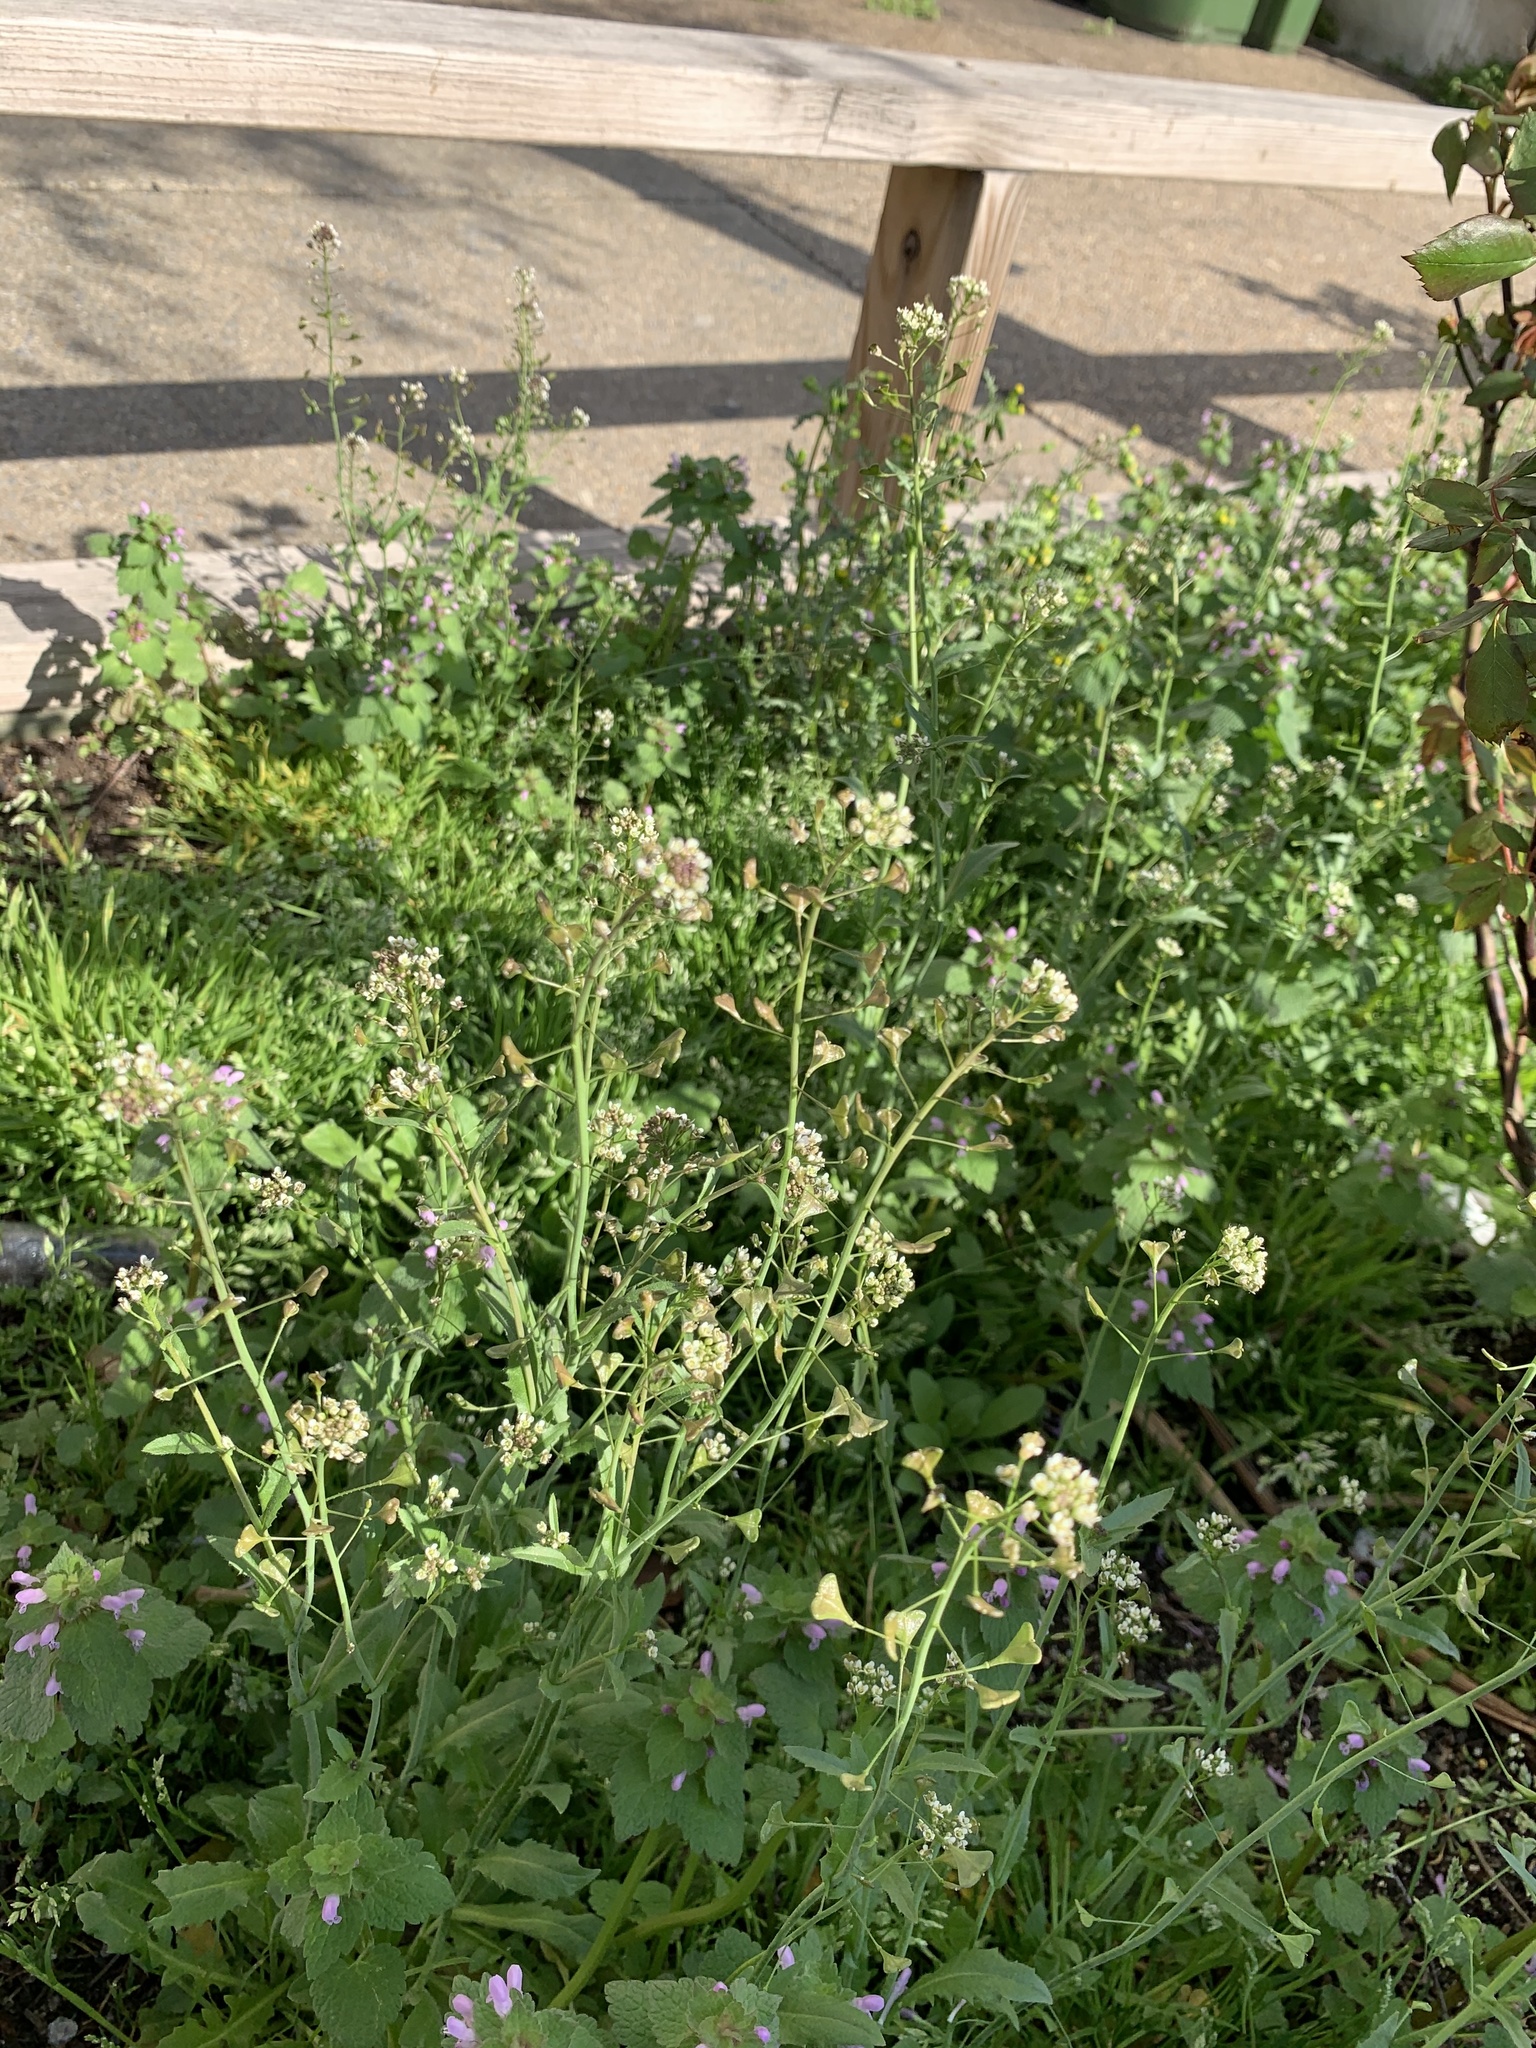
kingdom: Plantae
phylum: Tracheophyta
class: Magnoliopsida
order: Brassicales
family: Brassicaceae
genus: Capsella
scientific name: Capsella bursa-pastoris
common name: Shepherd's purse
